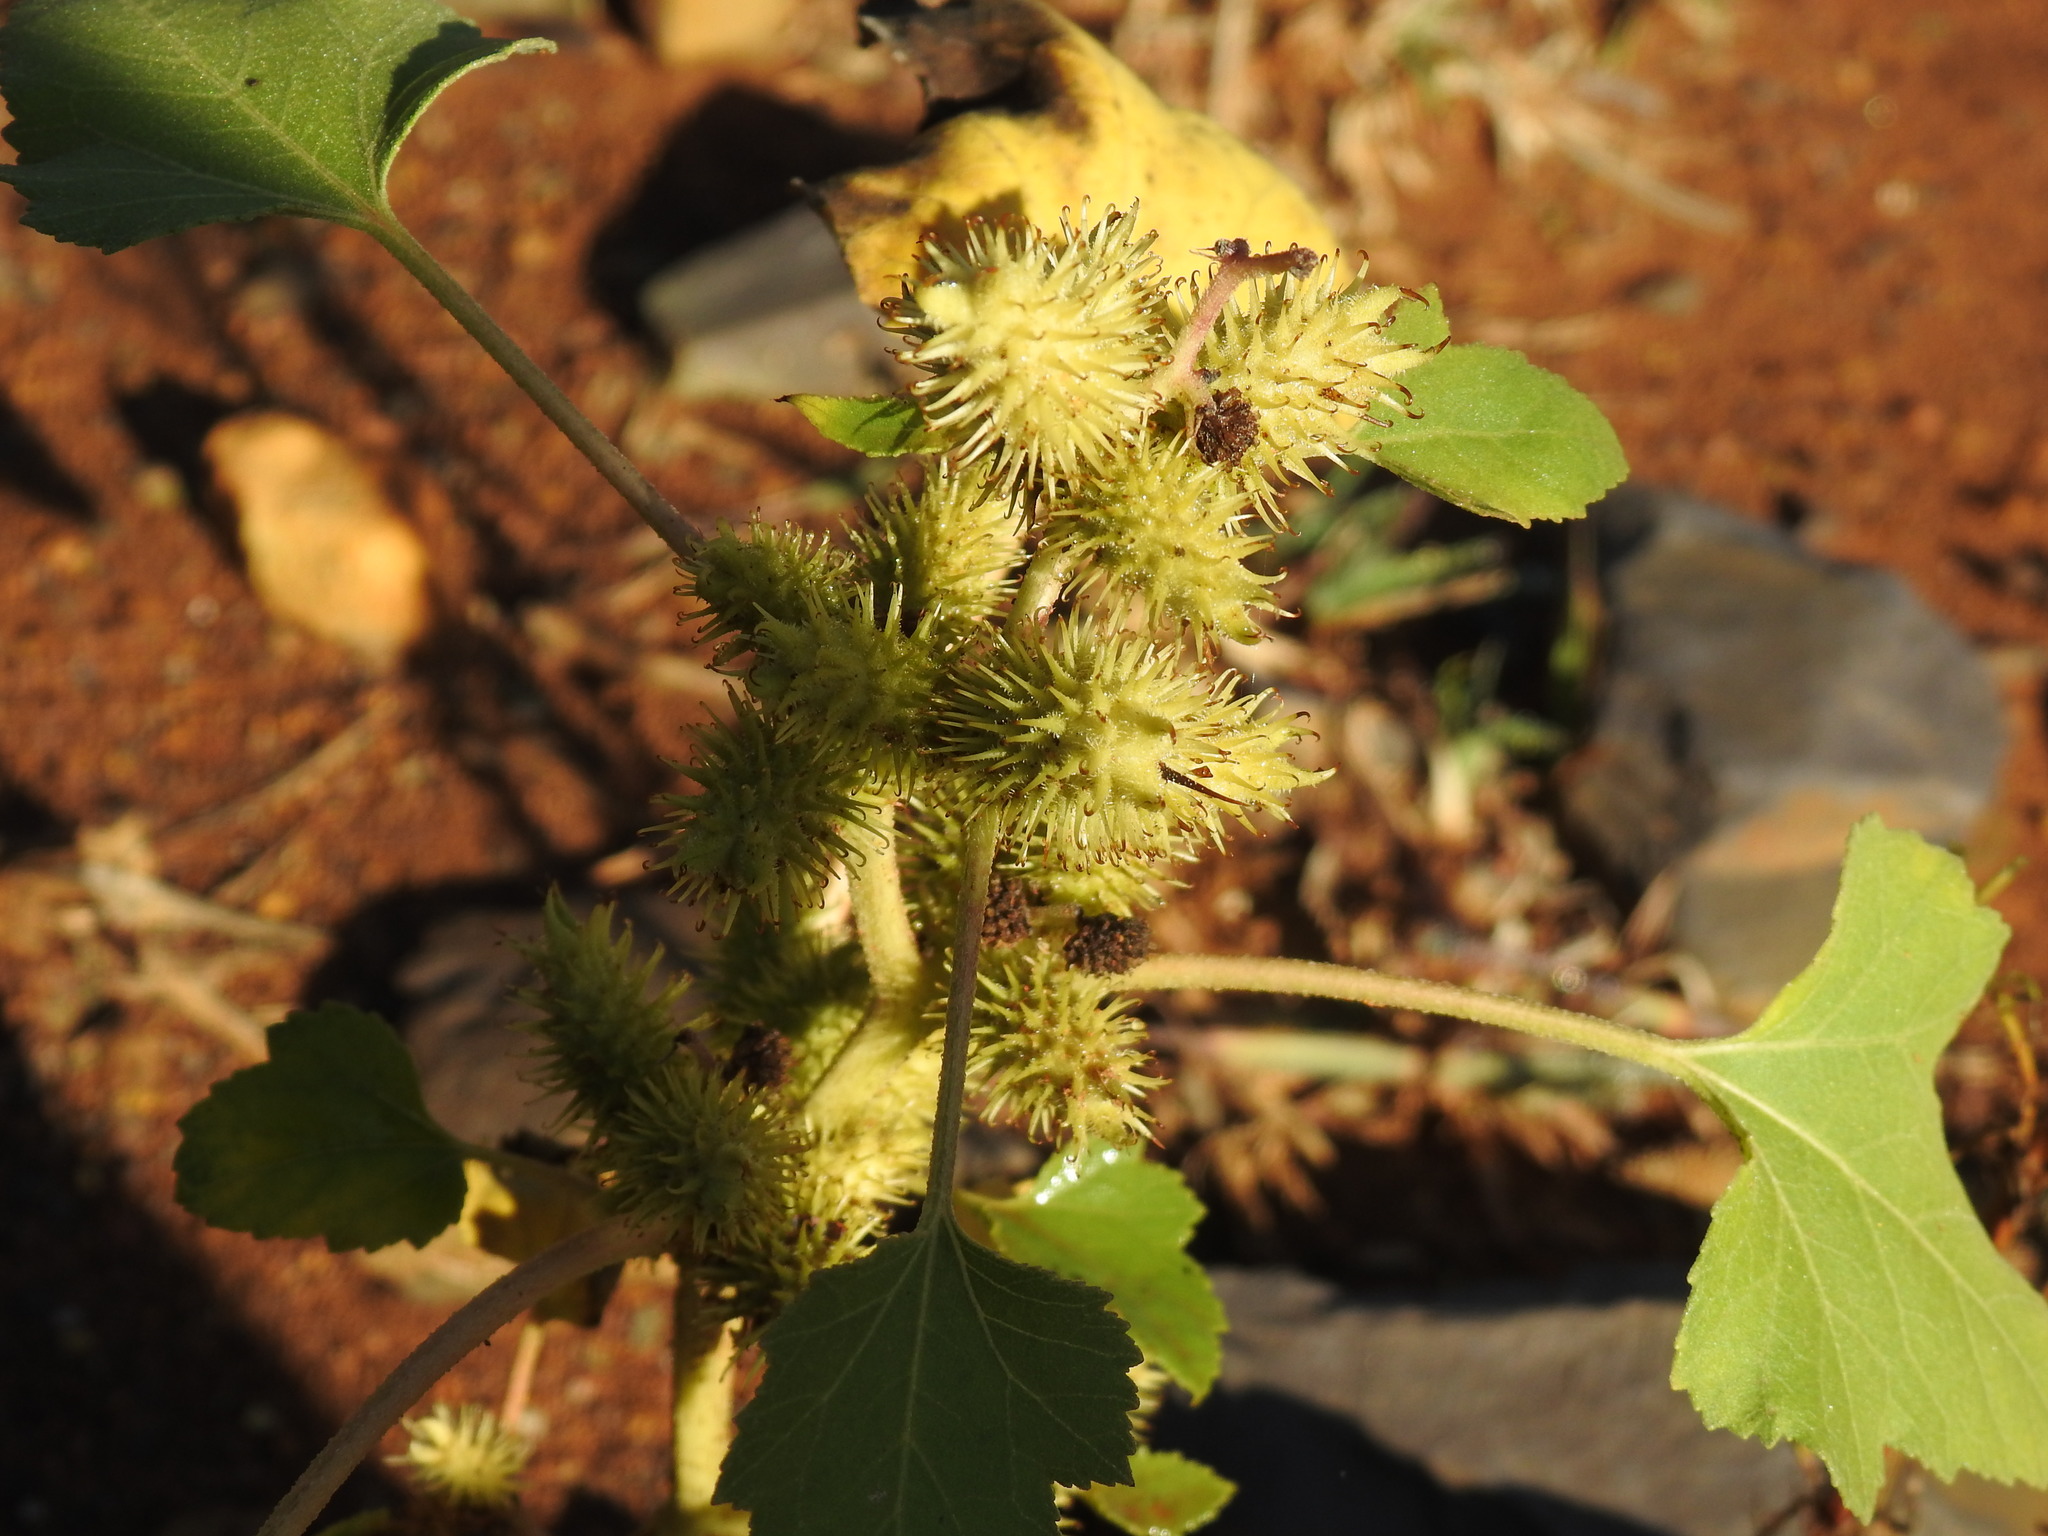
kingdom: Plantae
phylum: Tracheophyta
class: Magnoliopsida
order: Asterales
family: Asteraceae
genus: Xanthium
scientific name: Xanthium strumarium
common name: Rough cocklebur
